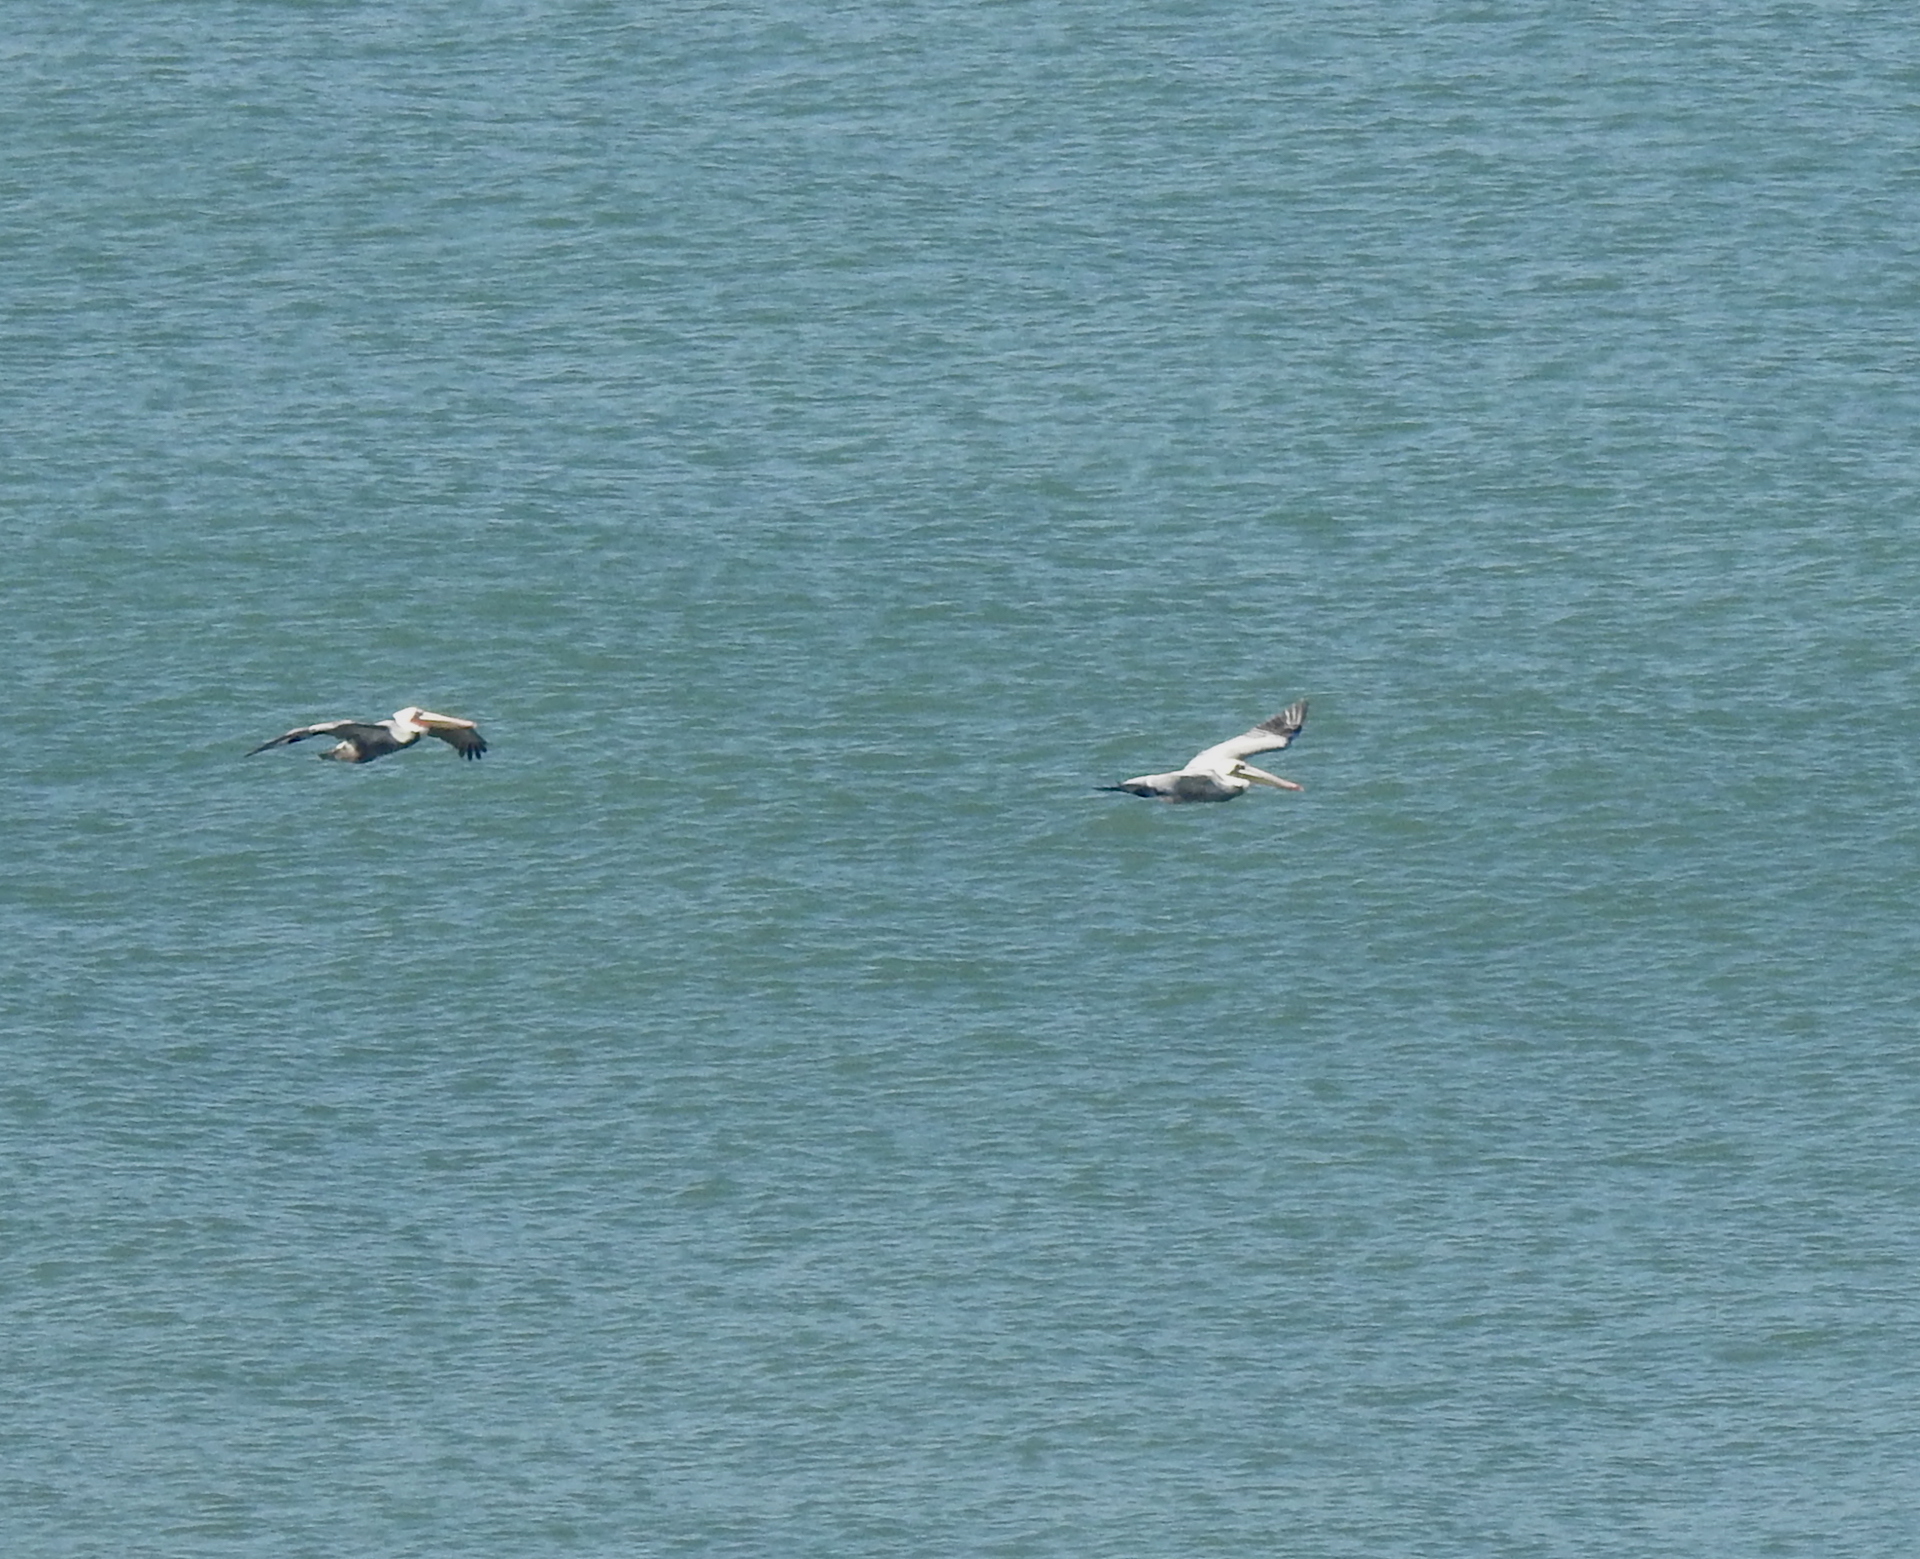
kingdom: Animalia
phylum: Chordata
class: Aves
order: Pelecaniformes
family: Pelecanidae
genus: Pelecanus
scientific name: Pelecanus occidentalis
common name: Brown pelican
